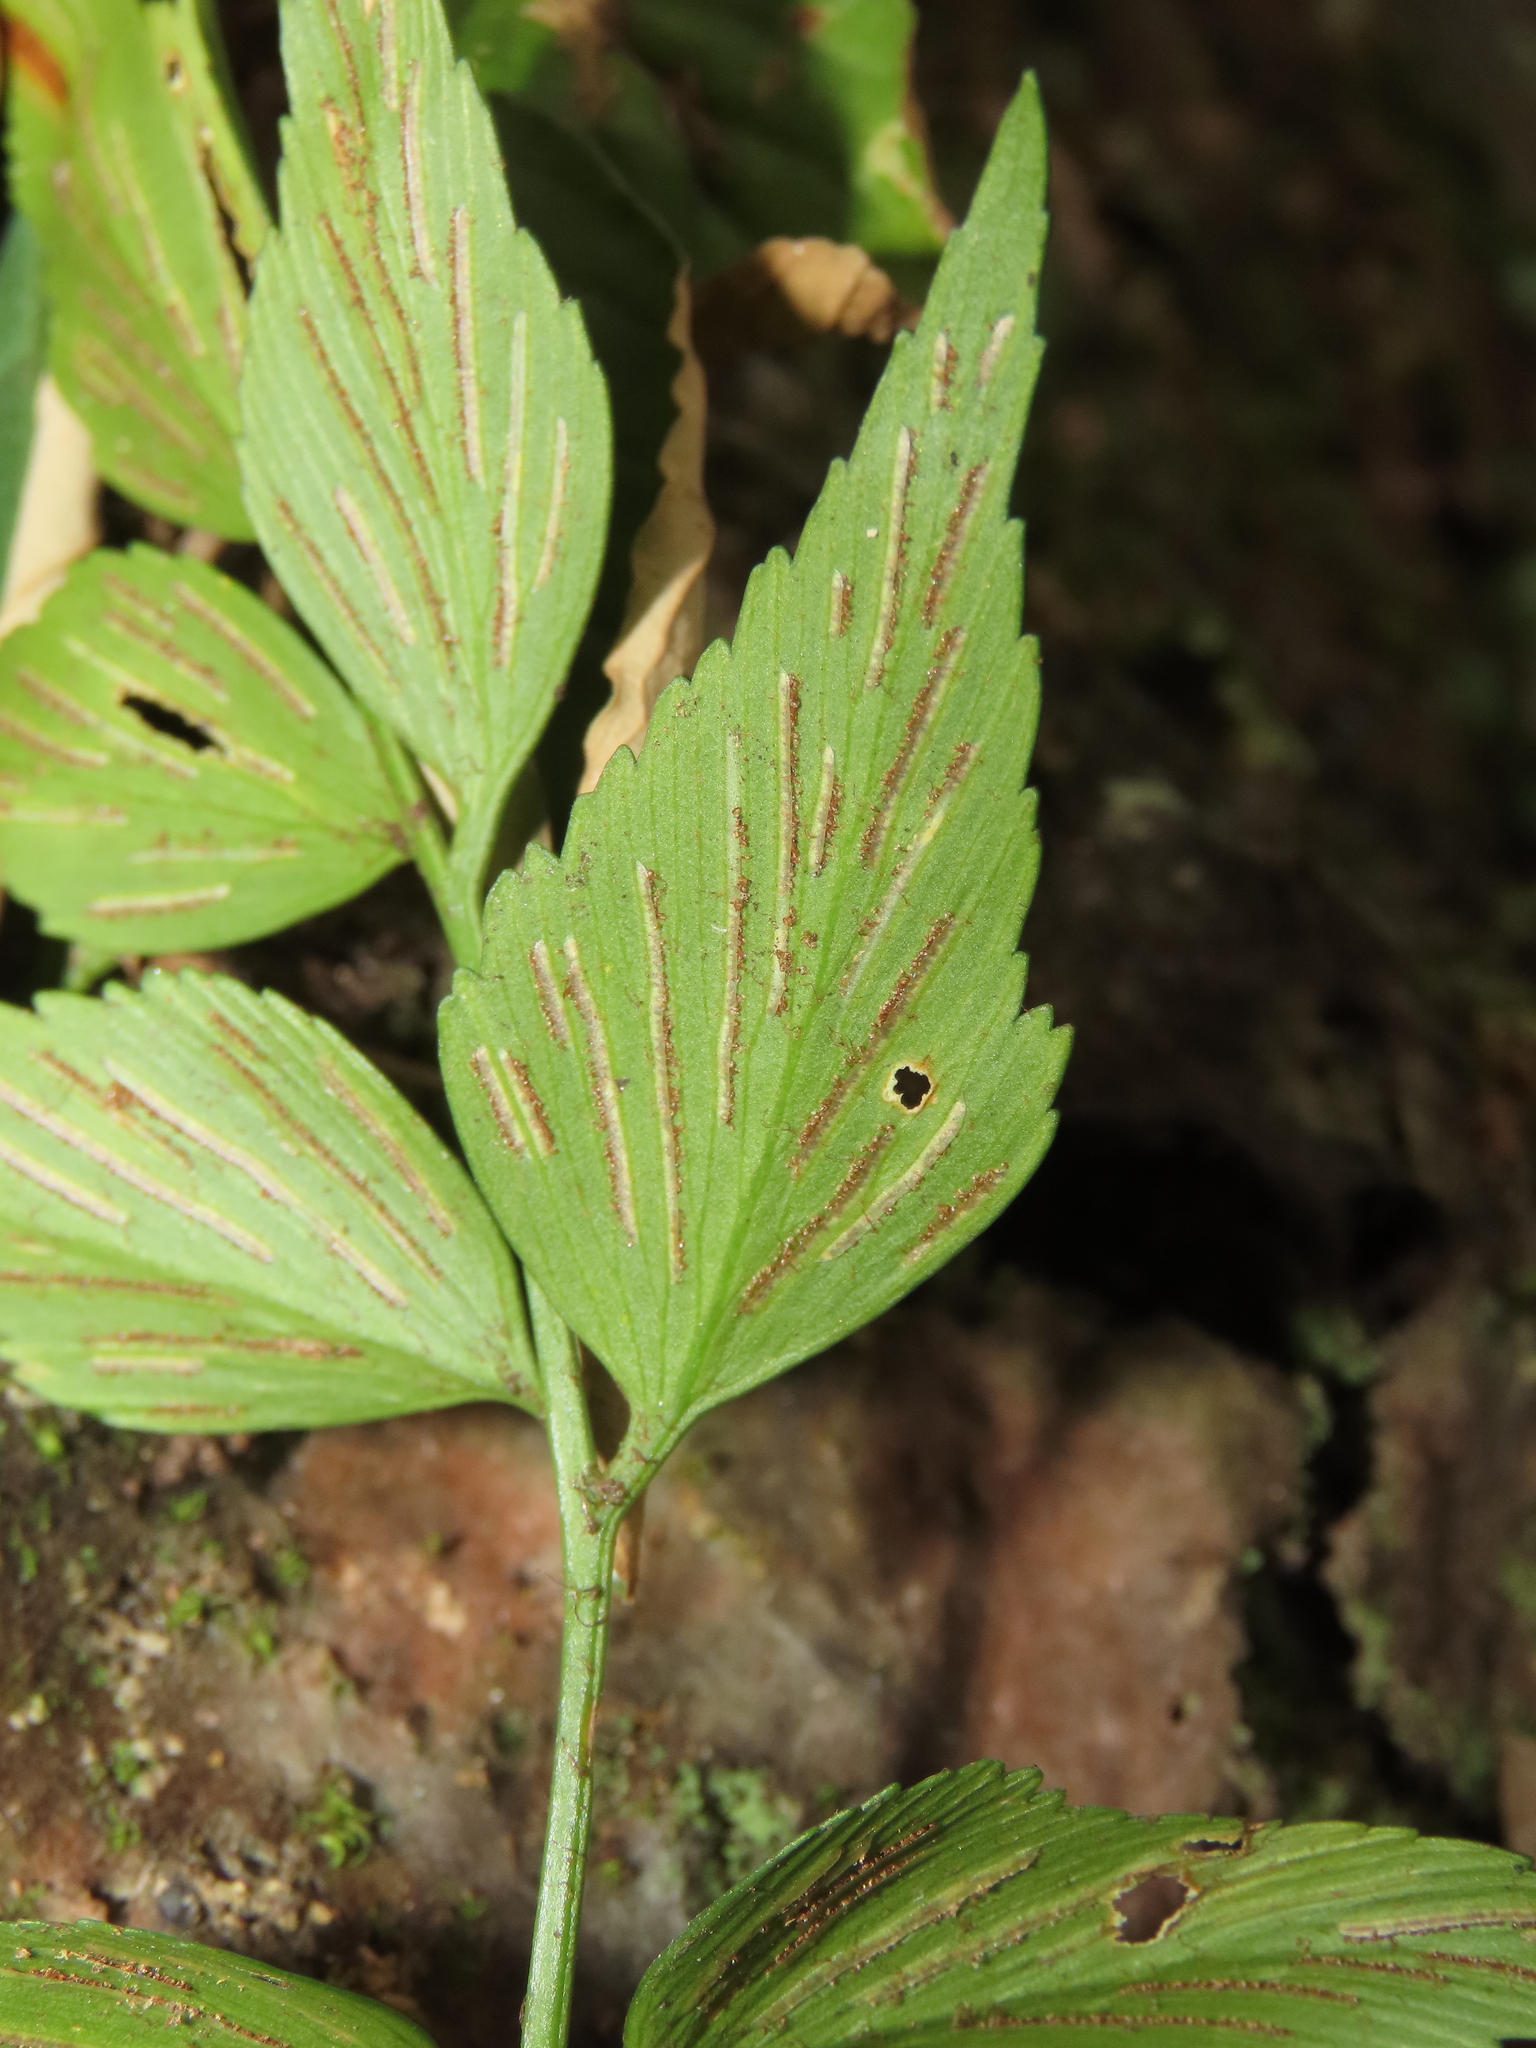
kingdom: Plantae
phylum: Tracheophyta
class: Polypodiopsida
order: Polypodiales
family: Aspleniaceae
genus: Asplenium
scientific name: Asplenium falcatum
